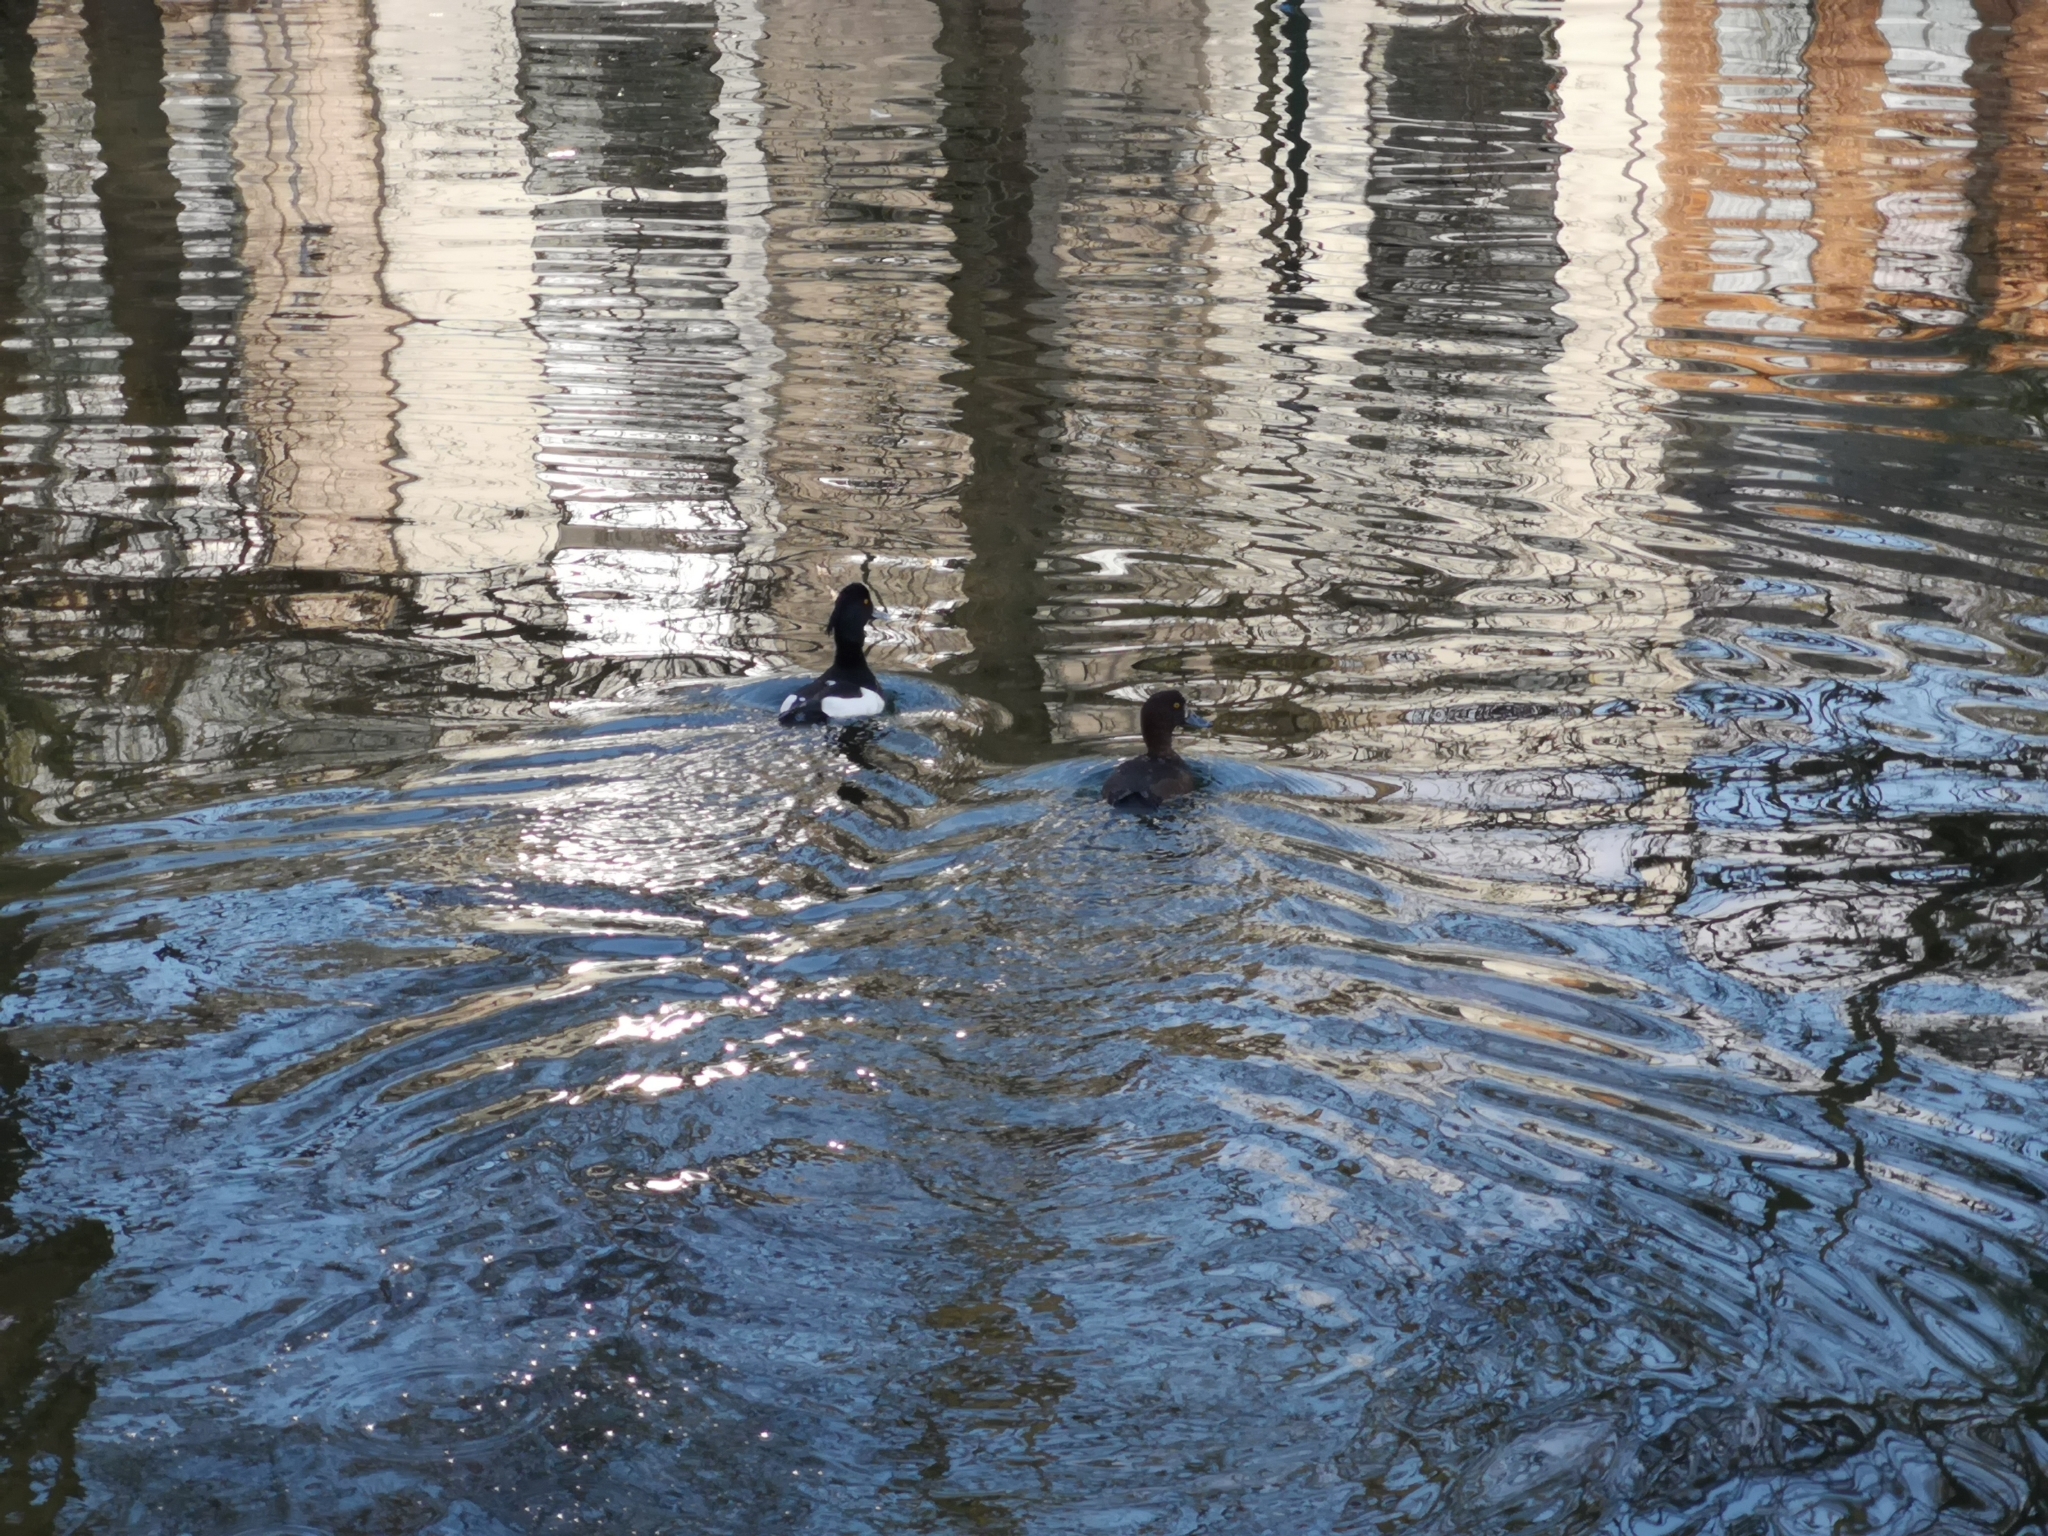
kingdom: Animalia
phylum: Chordata
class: Aves
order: Anseriformes
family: Anatidae
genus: Aythya
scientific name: Aythya fuligula
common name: Tufted duck
